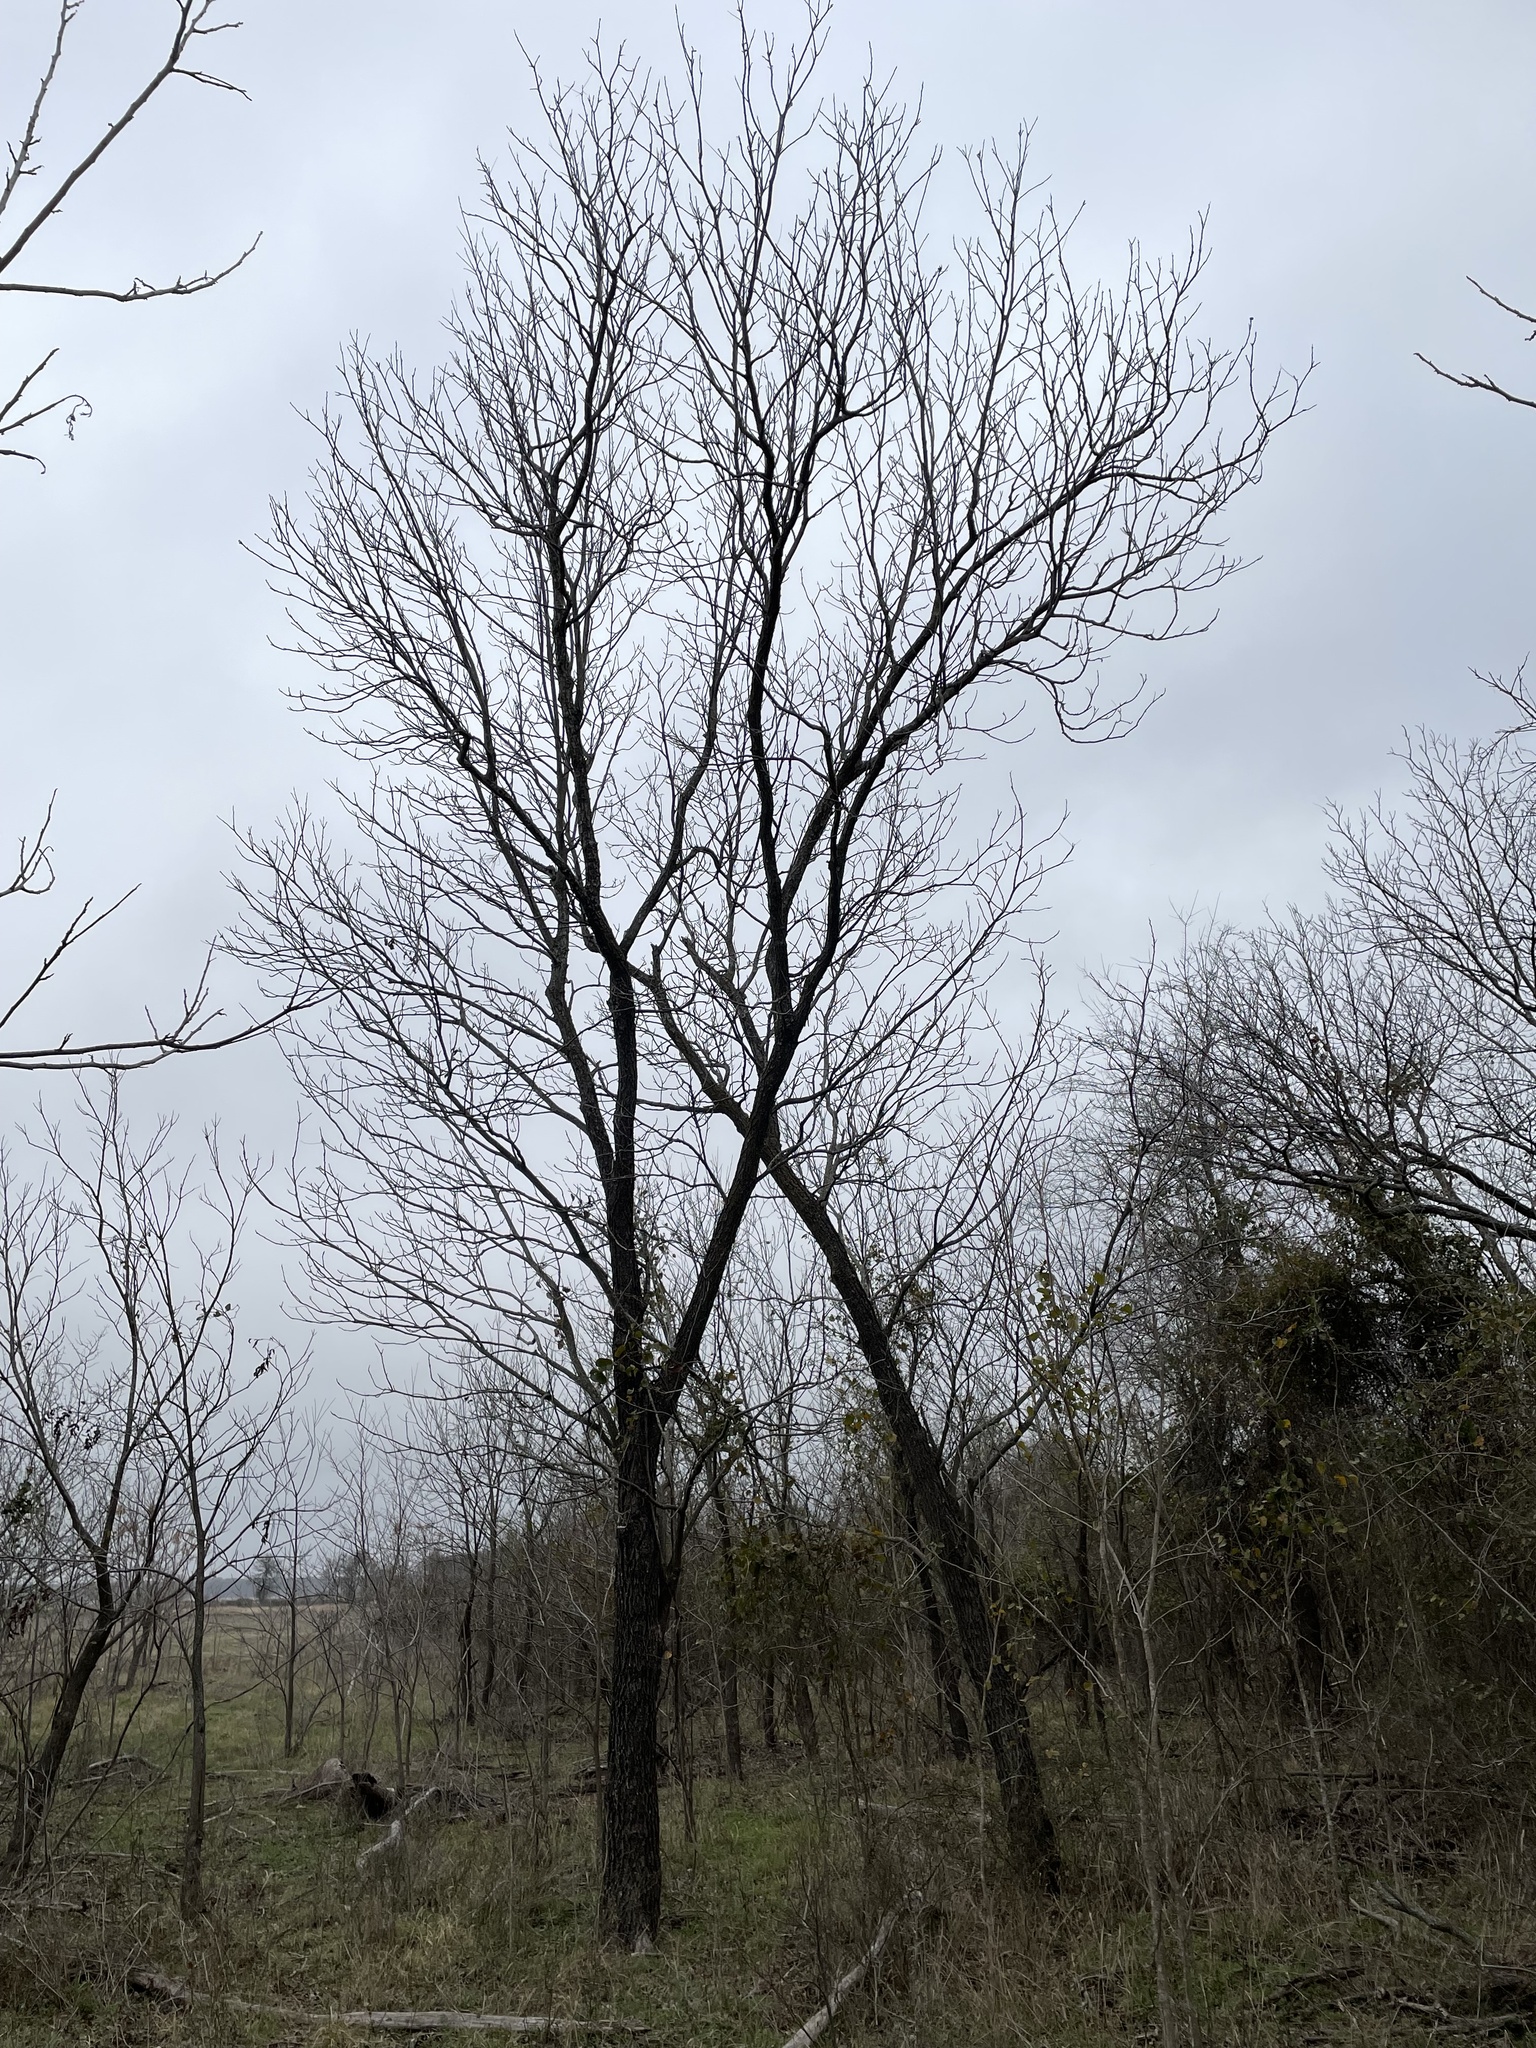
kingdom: Plantae
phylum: Tracheophyta
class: Magnoliopsida
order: Fagales
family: Juglandaceae
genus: Carya
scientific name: Carya illinoinensis
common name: Pecan
